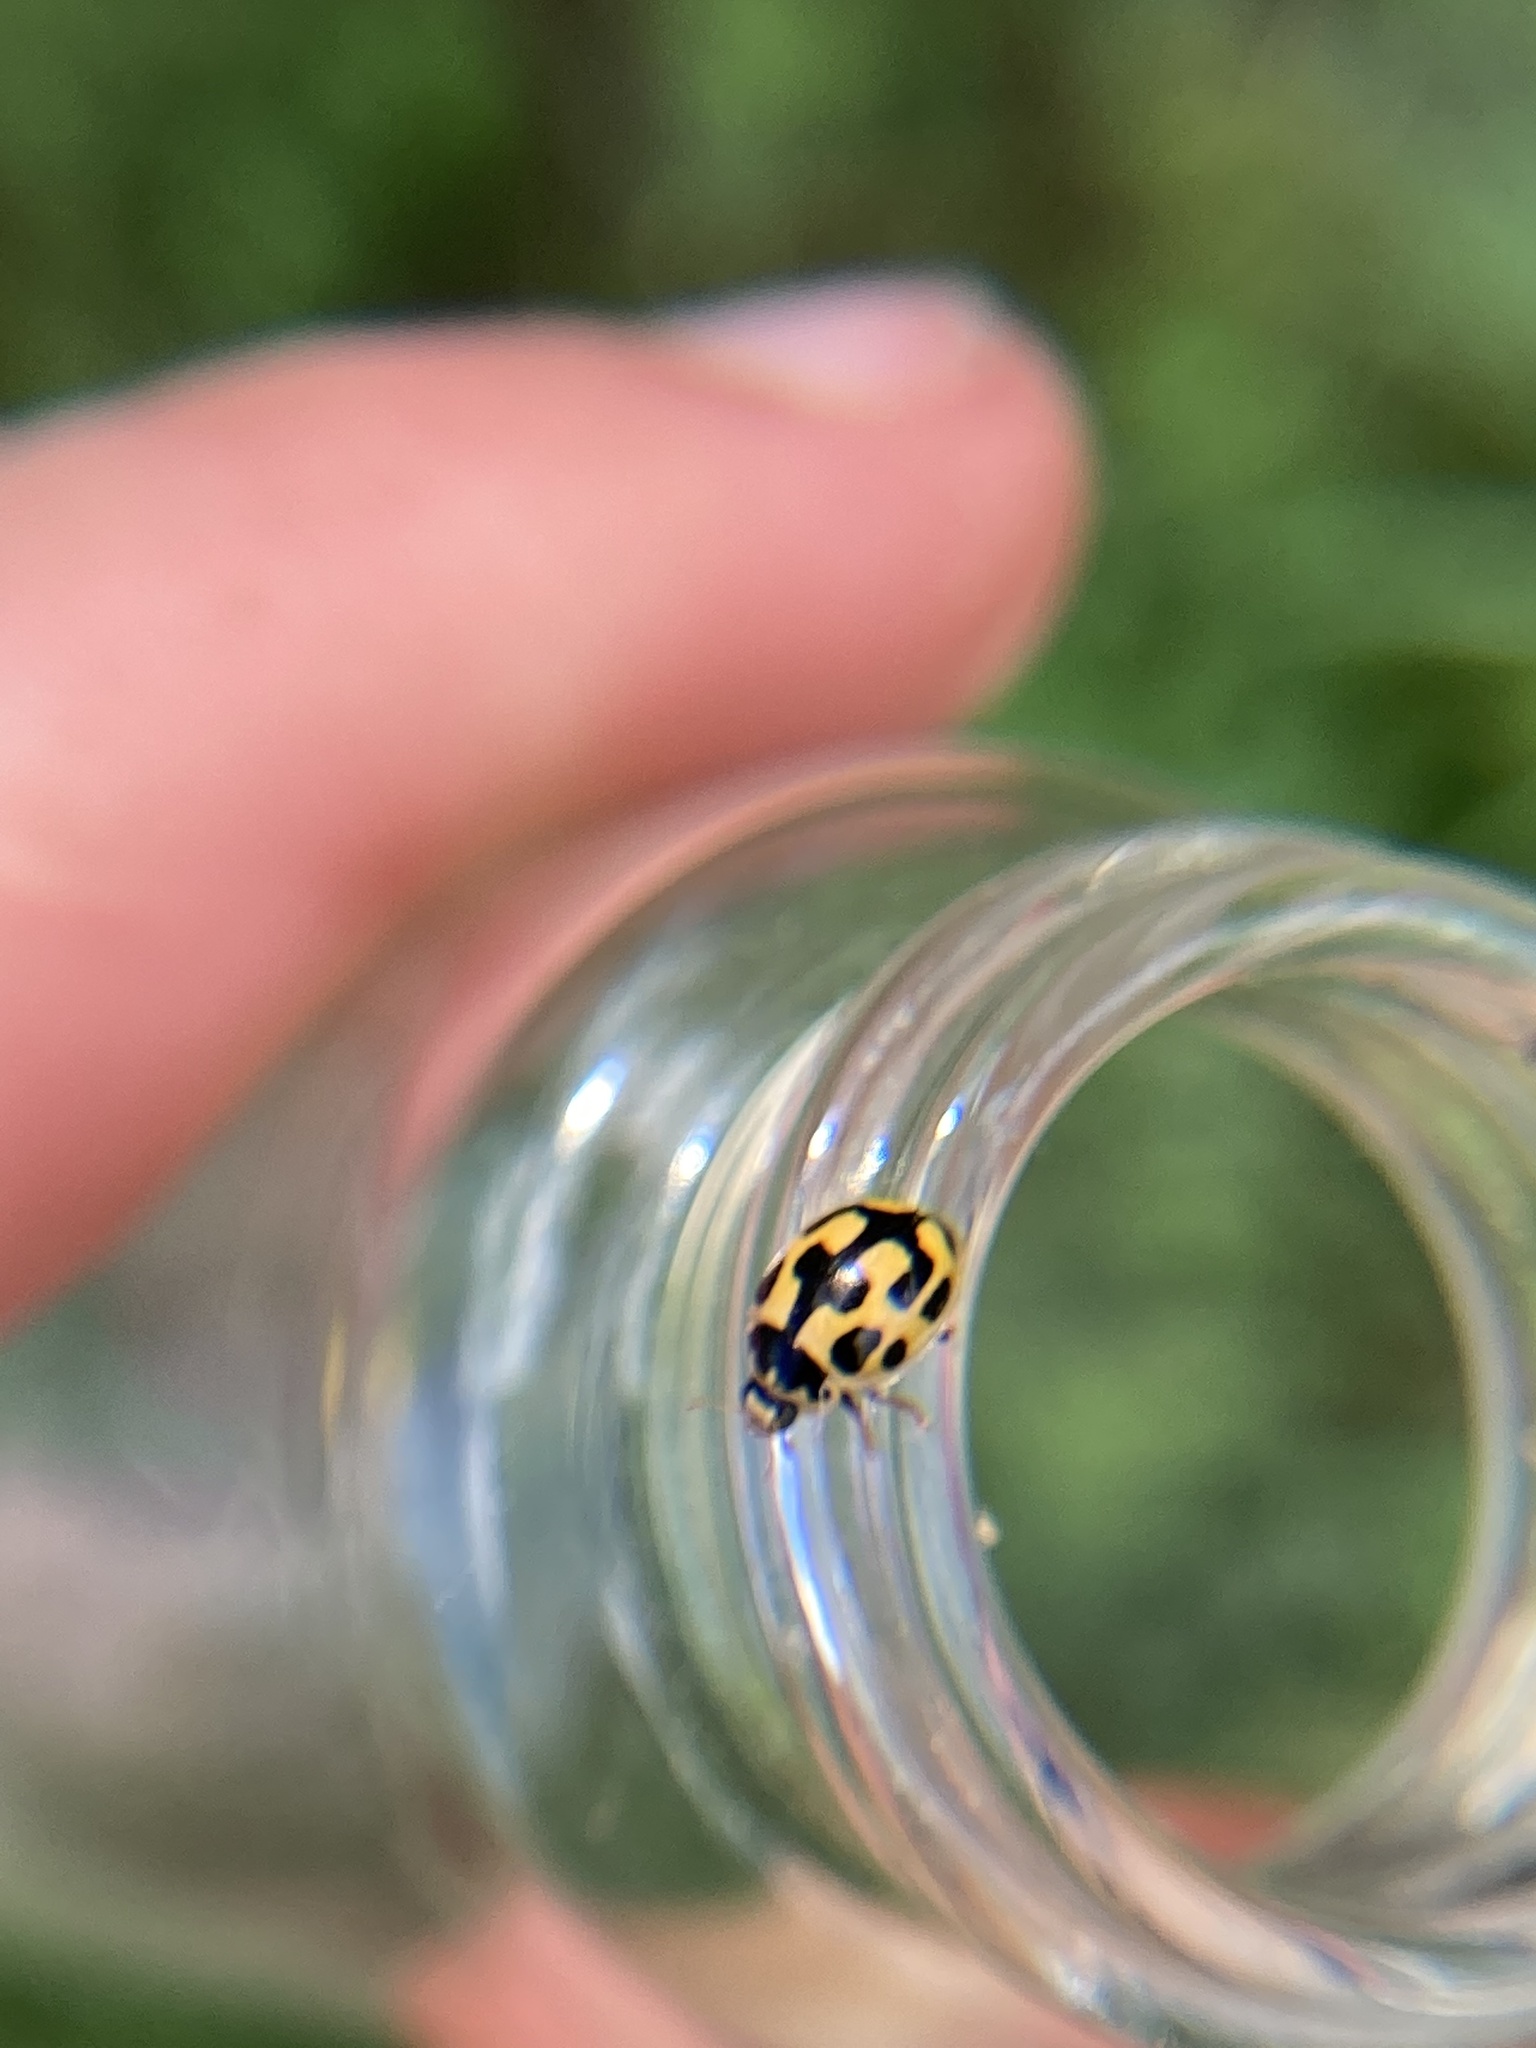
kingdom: Animalia
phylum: Arthropoda
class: Insecta
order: Coleoptera
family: Coccinellidae
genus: Propylaea
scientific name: Propylaea quatuordecimpunctata
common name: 14-spotted ladybird beetle
